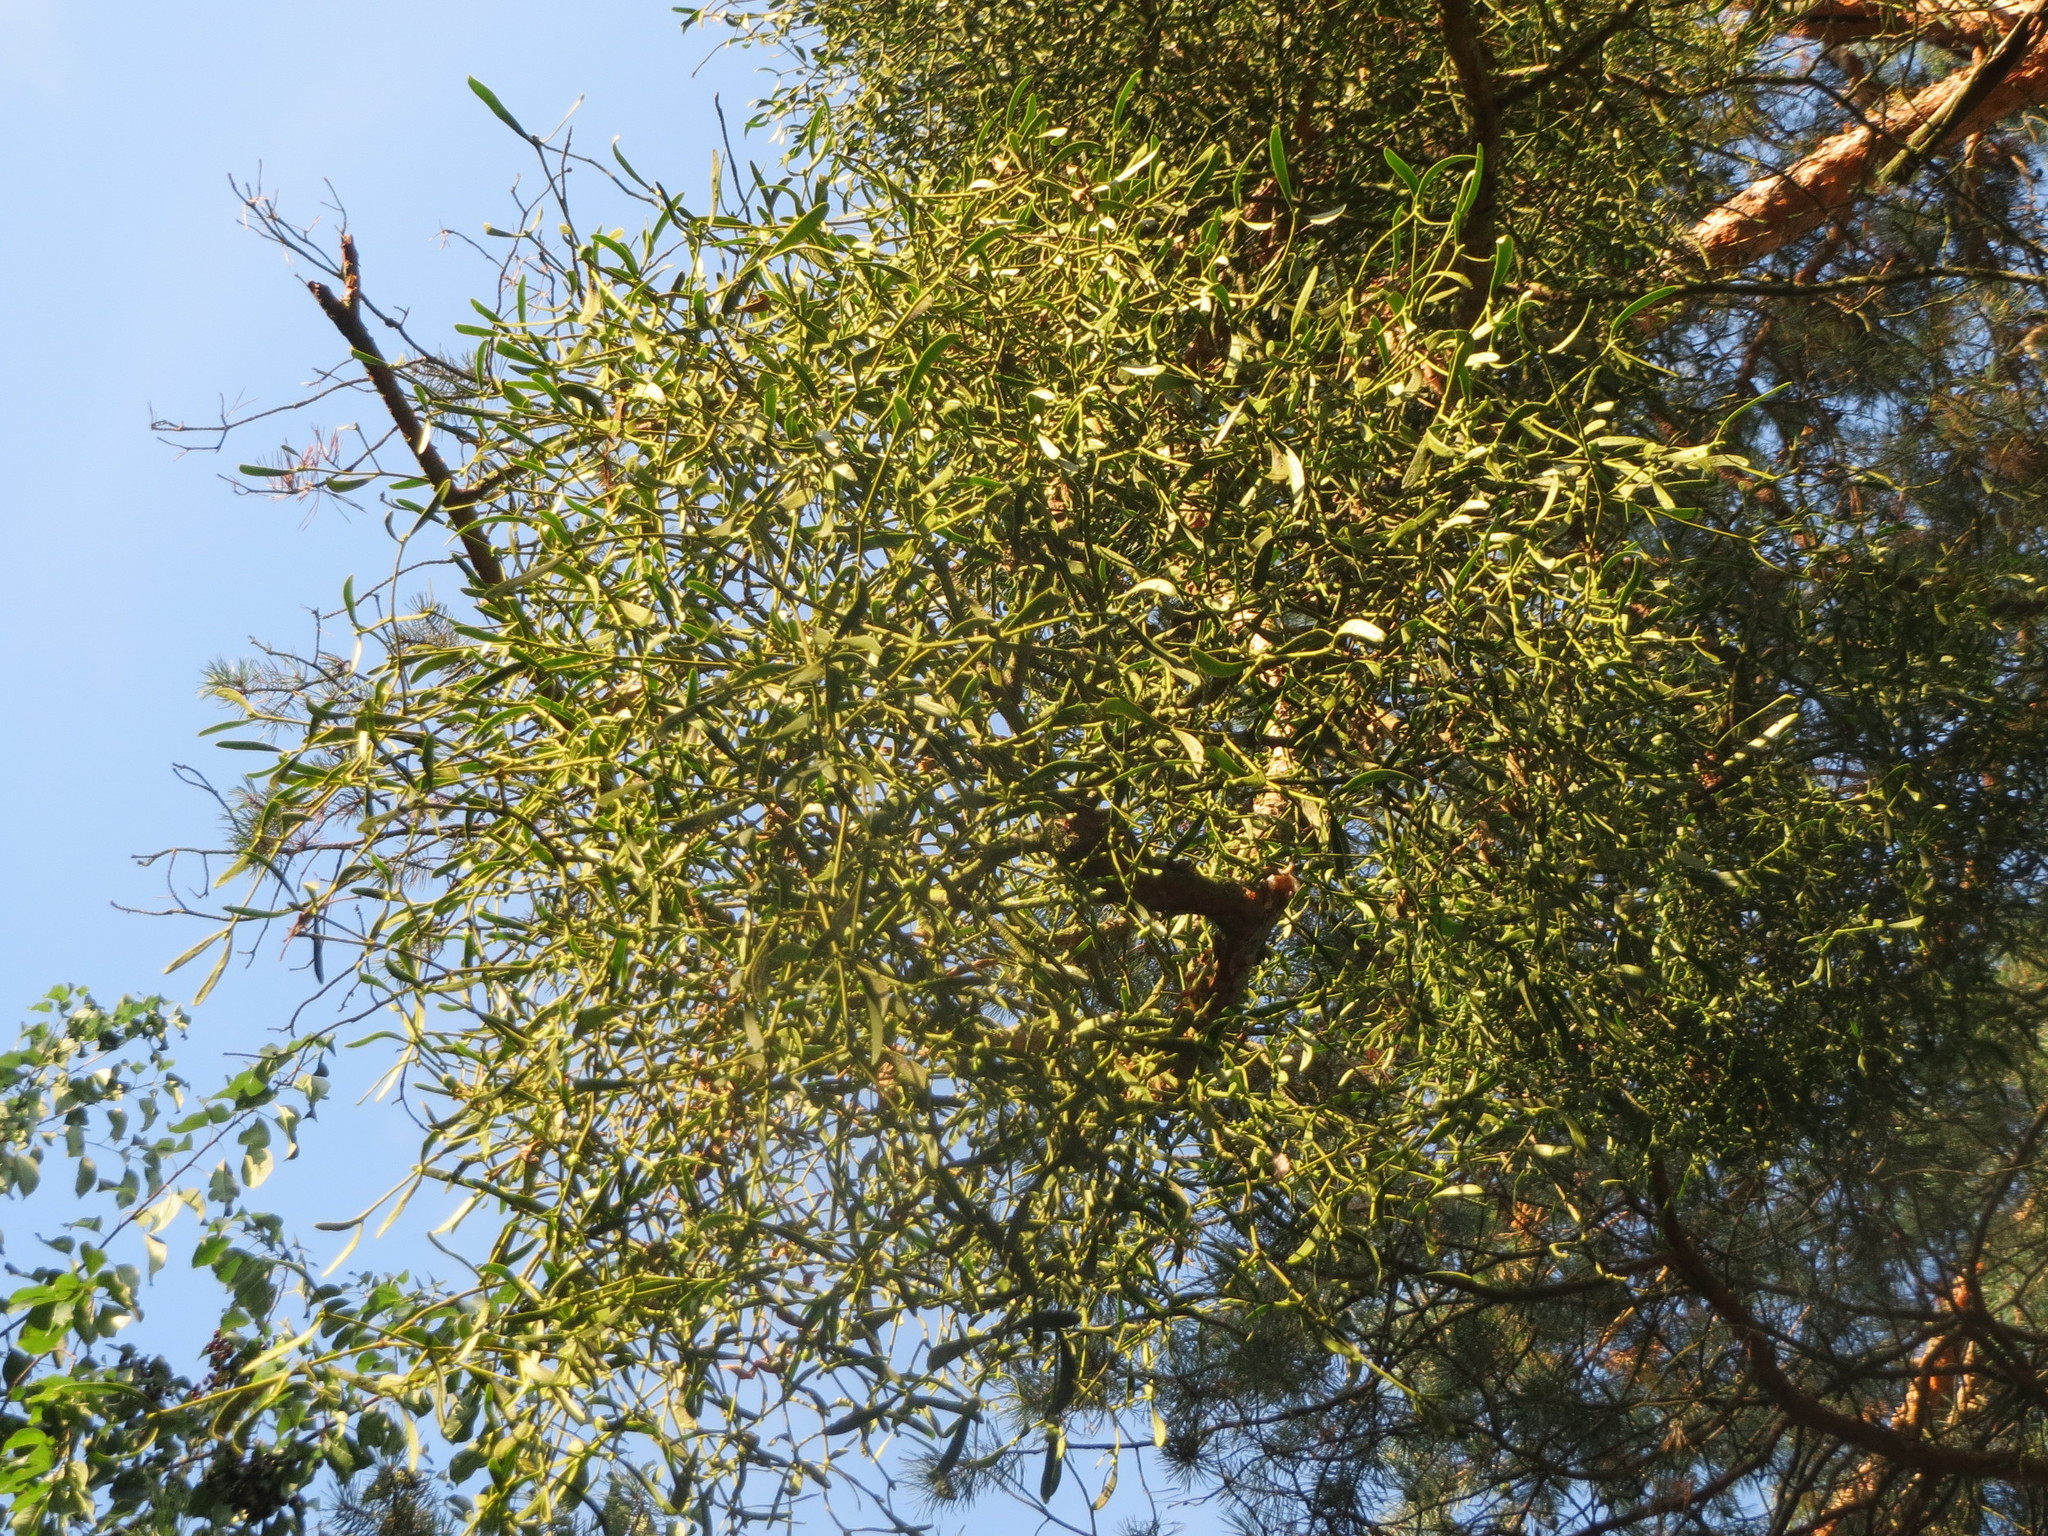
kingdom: Plantae
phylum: Tracheophyta
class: Magnoliopsida
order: Santalales
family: Viscaceae
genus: Viscum
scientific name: Viscum laxum
